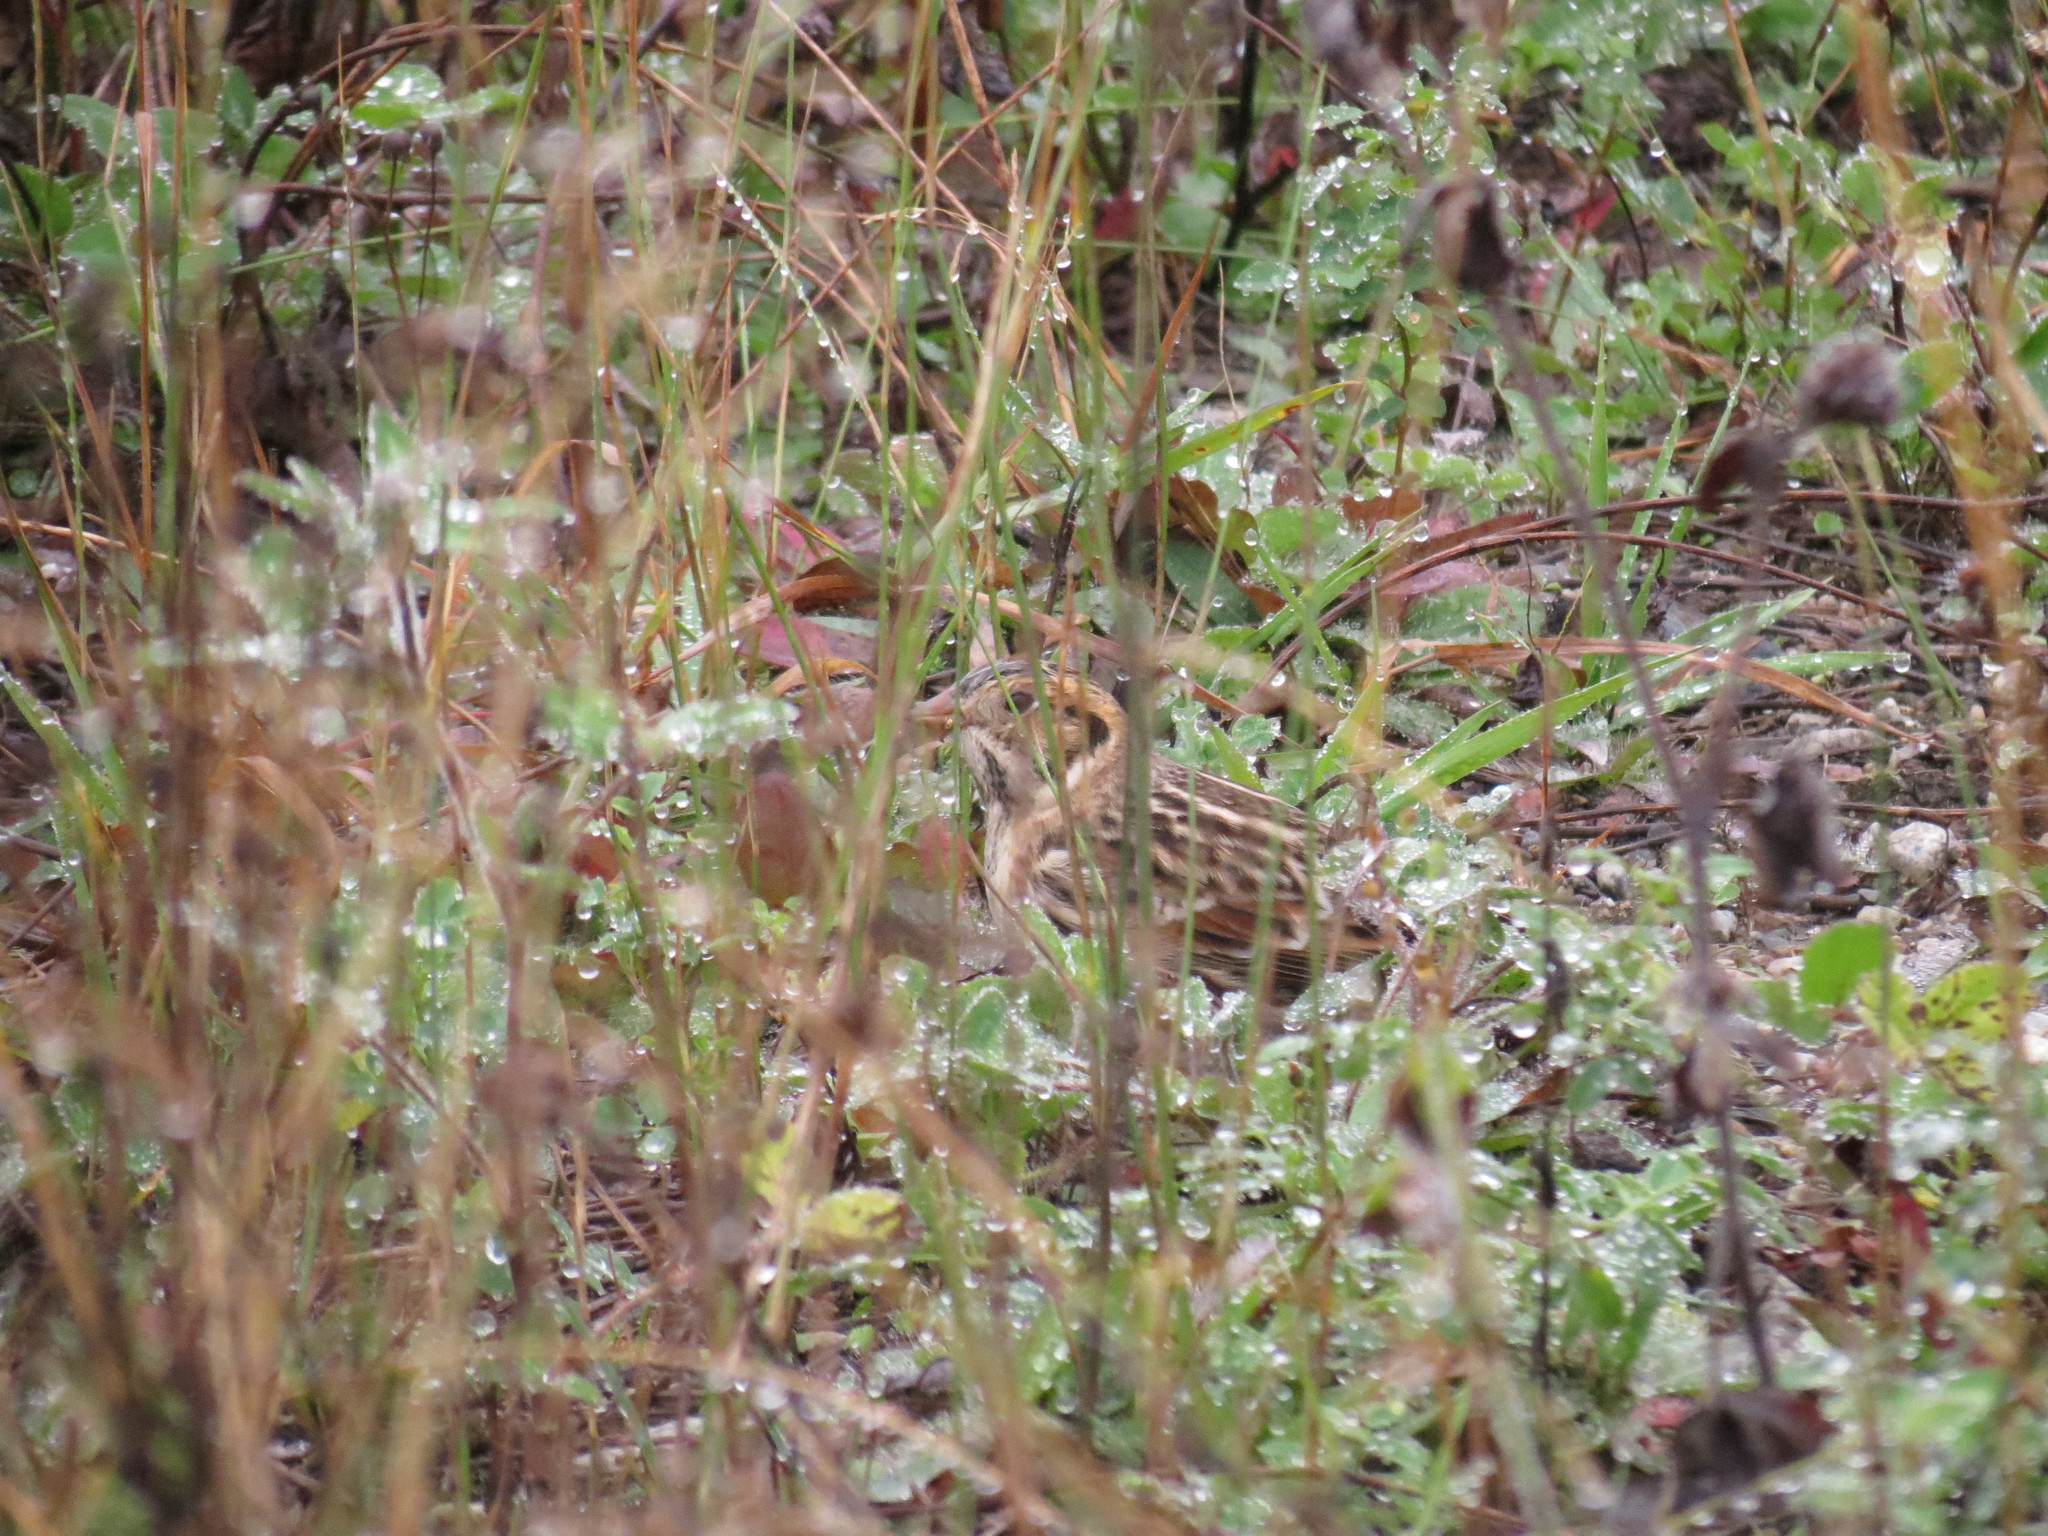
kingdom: Animalia
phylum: Chordata
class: Aves
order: Passeriformes
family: Calcariidae
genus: Calcarius
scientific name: Calcarius lapponicus
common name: Lapland longspur
